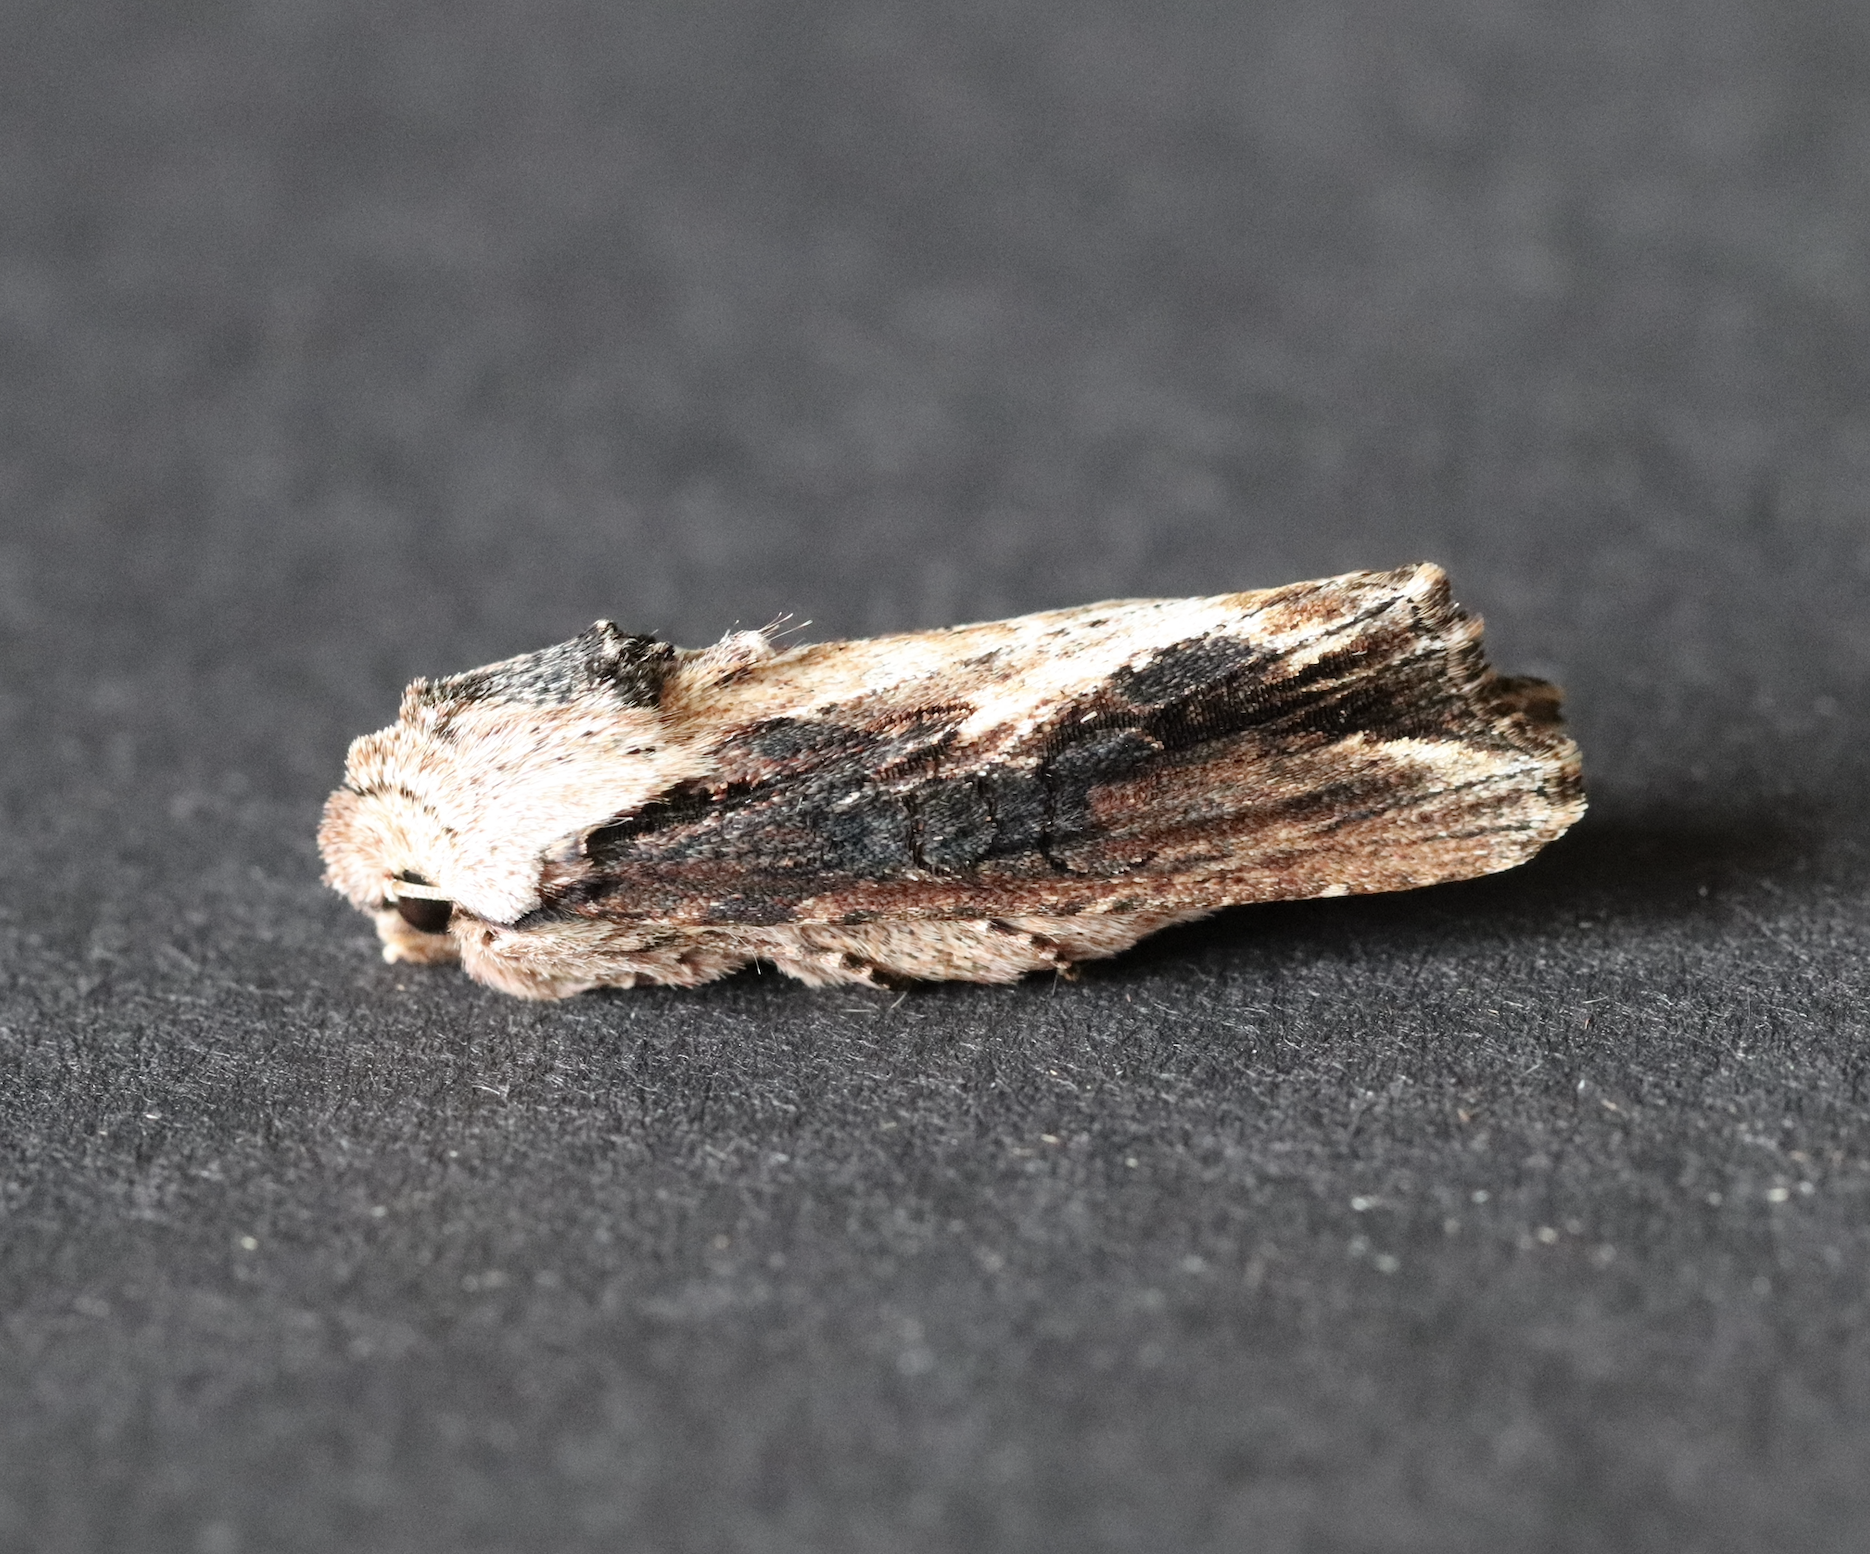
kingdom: Animalia
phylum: Arthropoda
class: Insecta
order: Lepidoptera
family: Noctuidae
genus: Egira
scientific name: Egira conspicillaris
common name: Silver cloud
